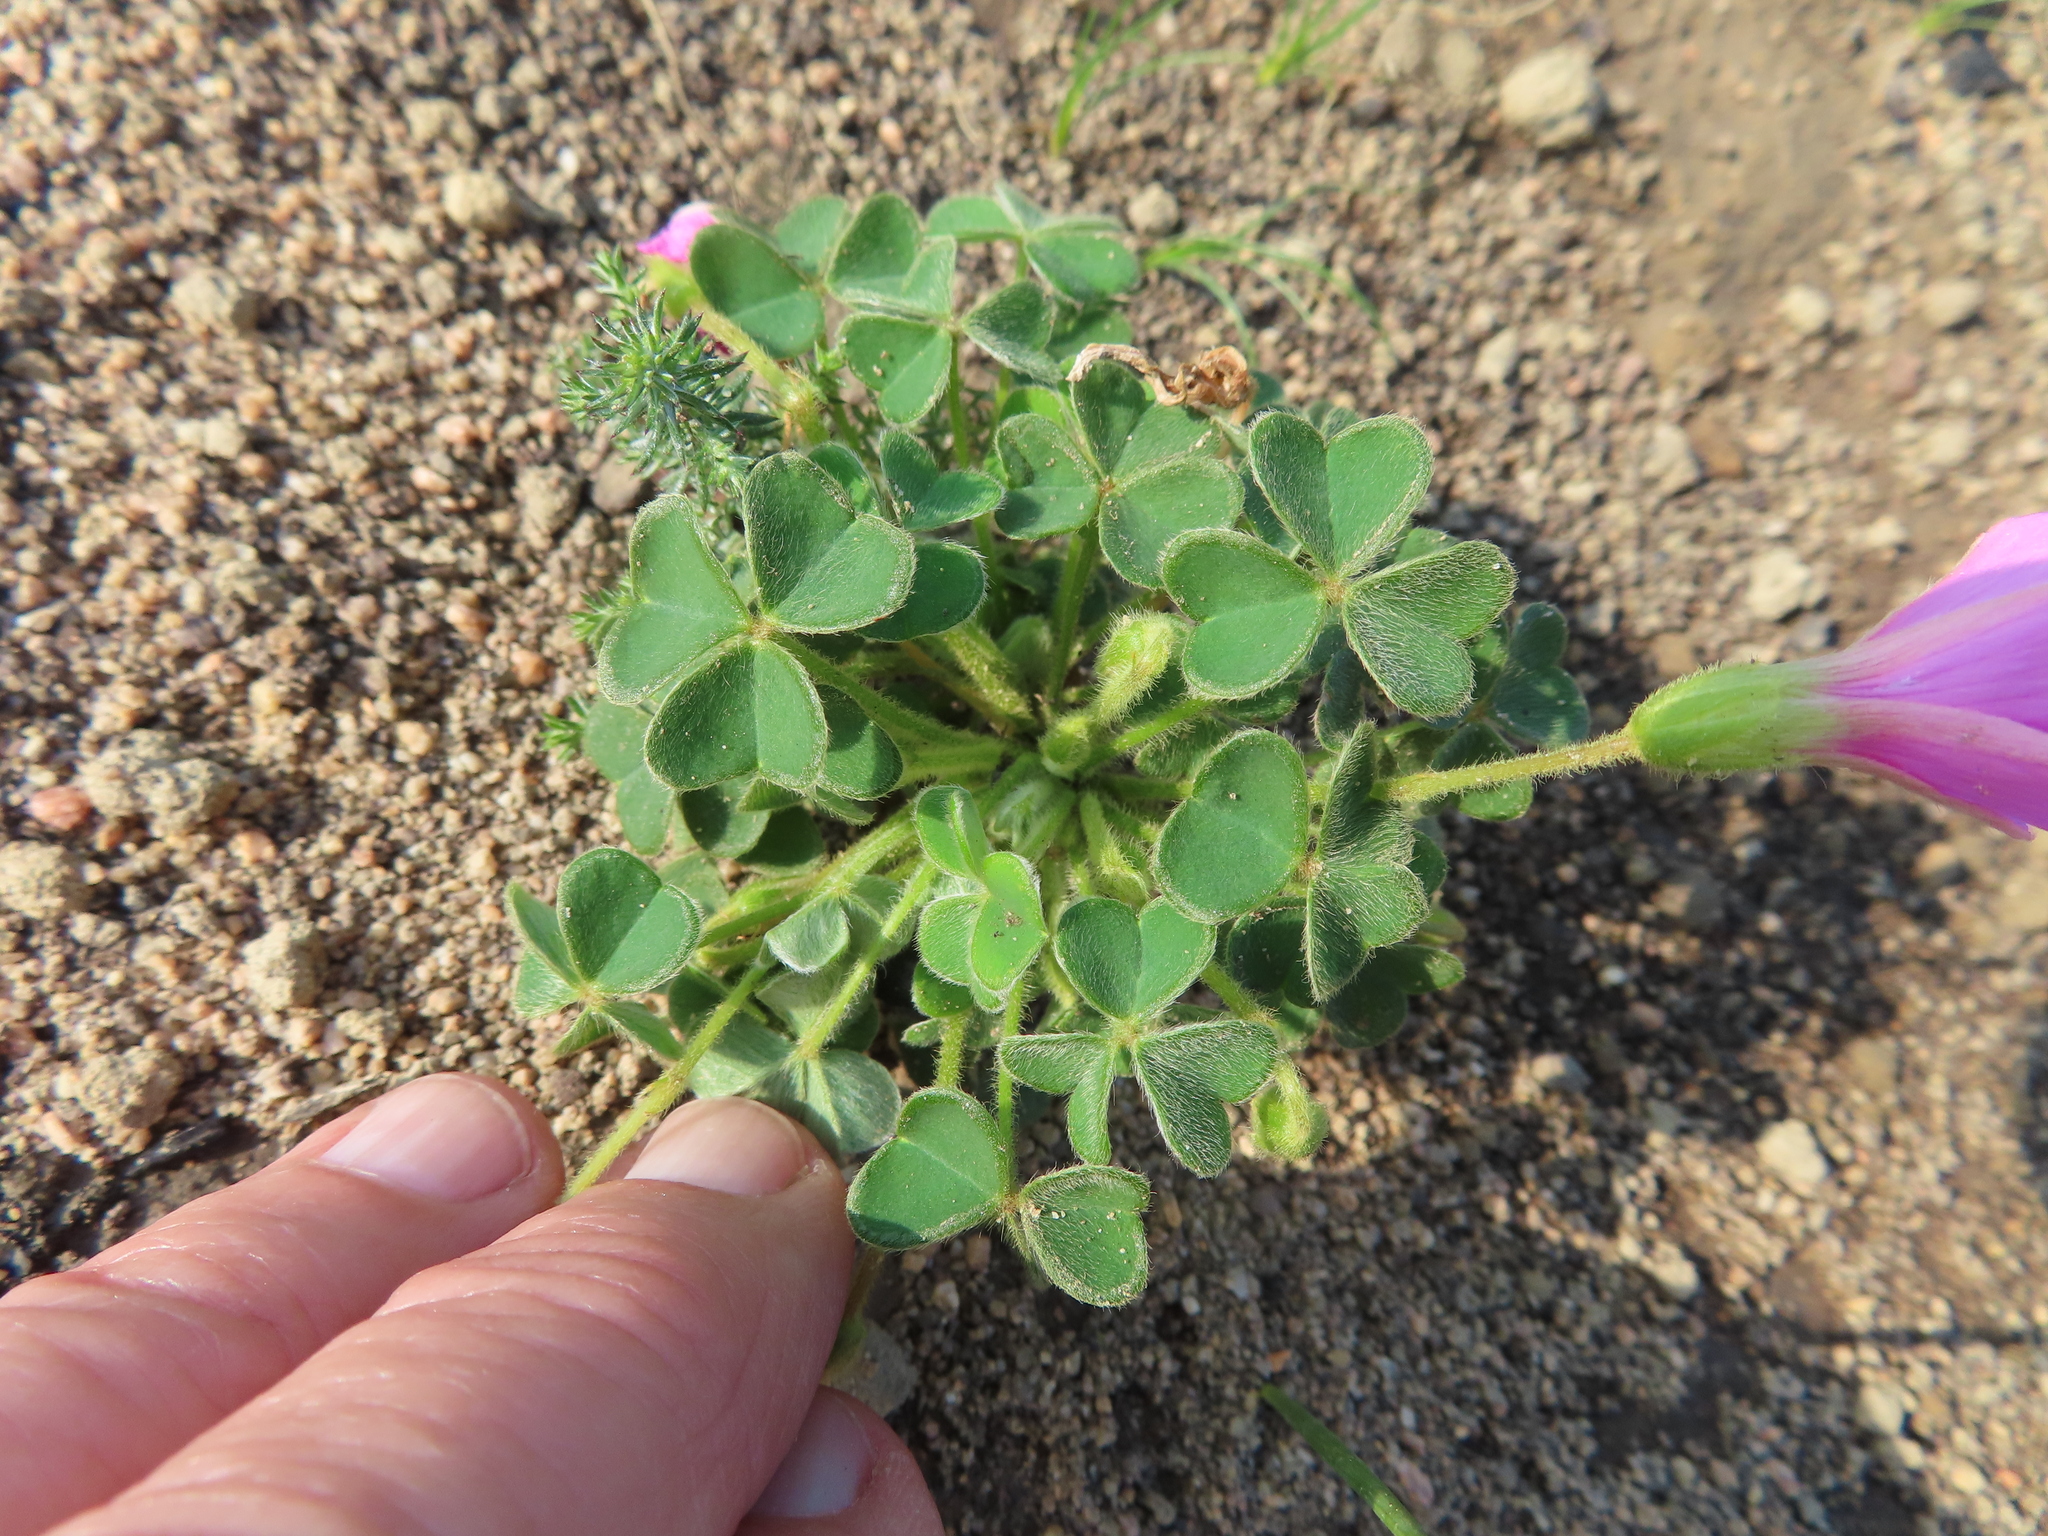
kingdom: Plantae
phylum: Tracheophyta
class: Magnoliopsida
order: Oxalidales
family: Oxalidaceae
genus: Oxalis
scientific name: Oxalis lanata
